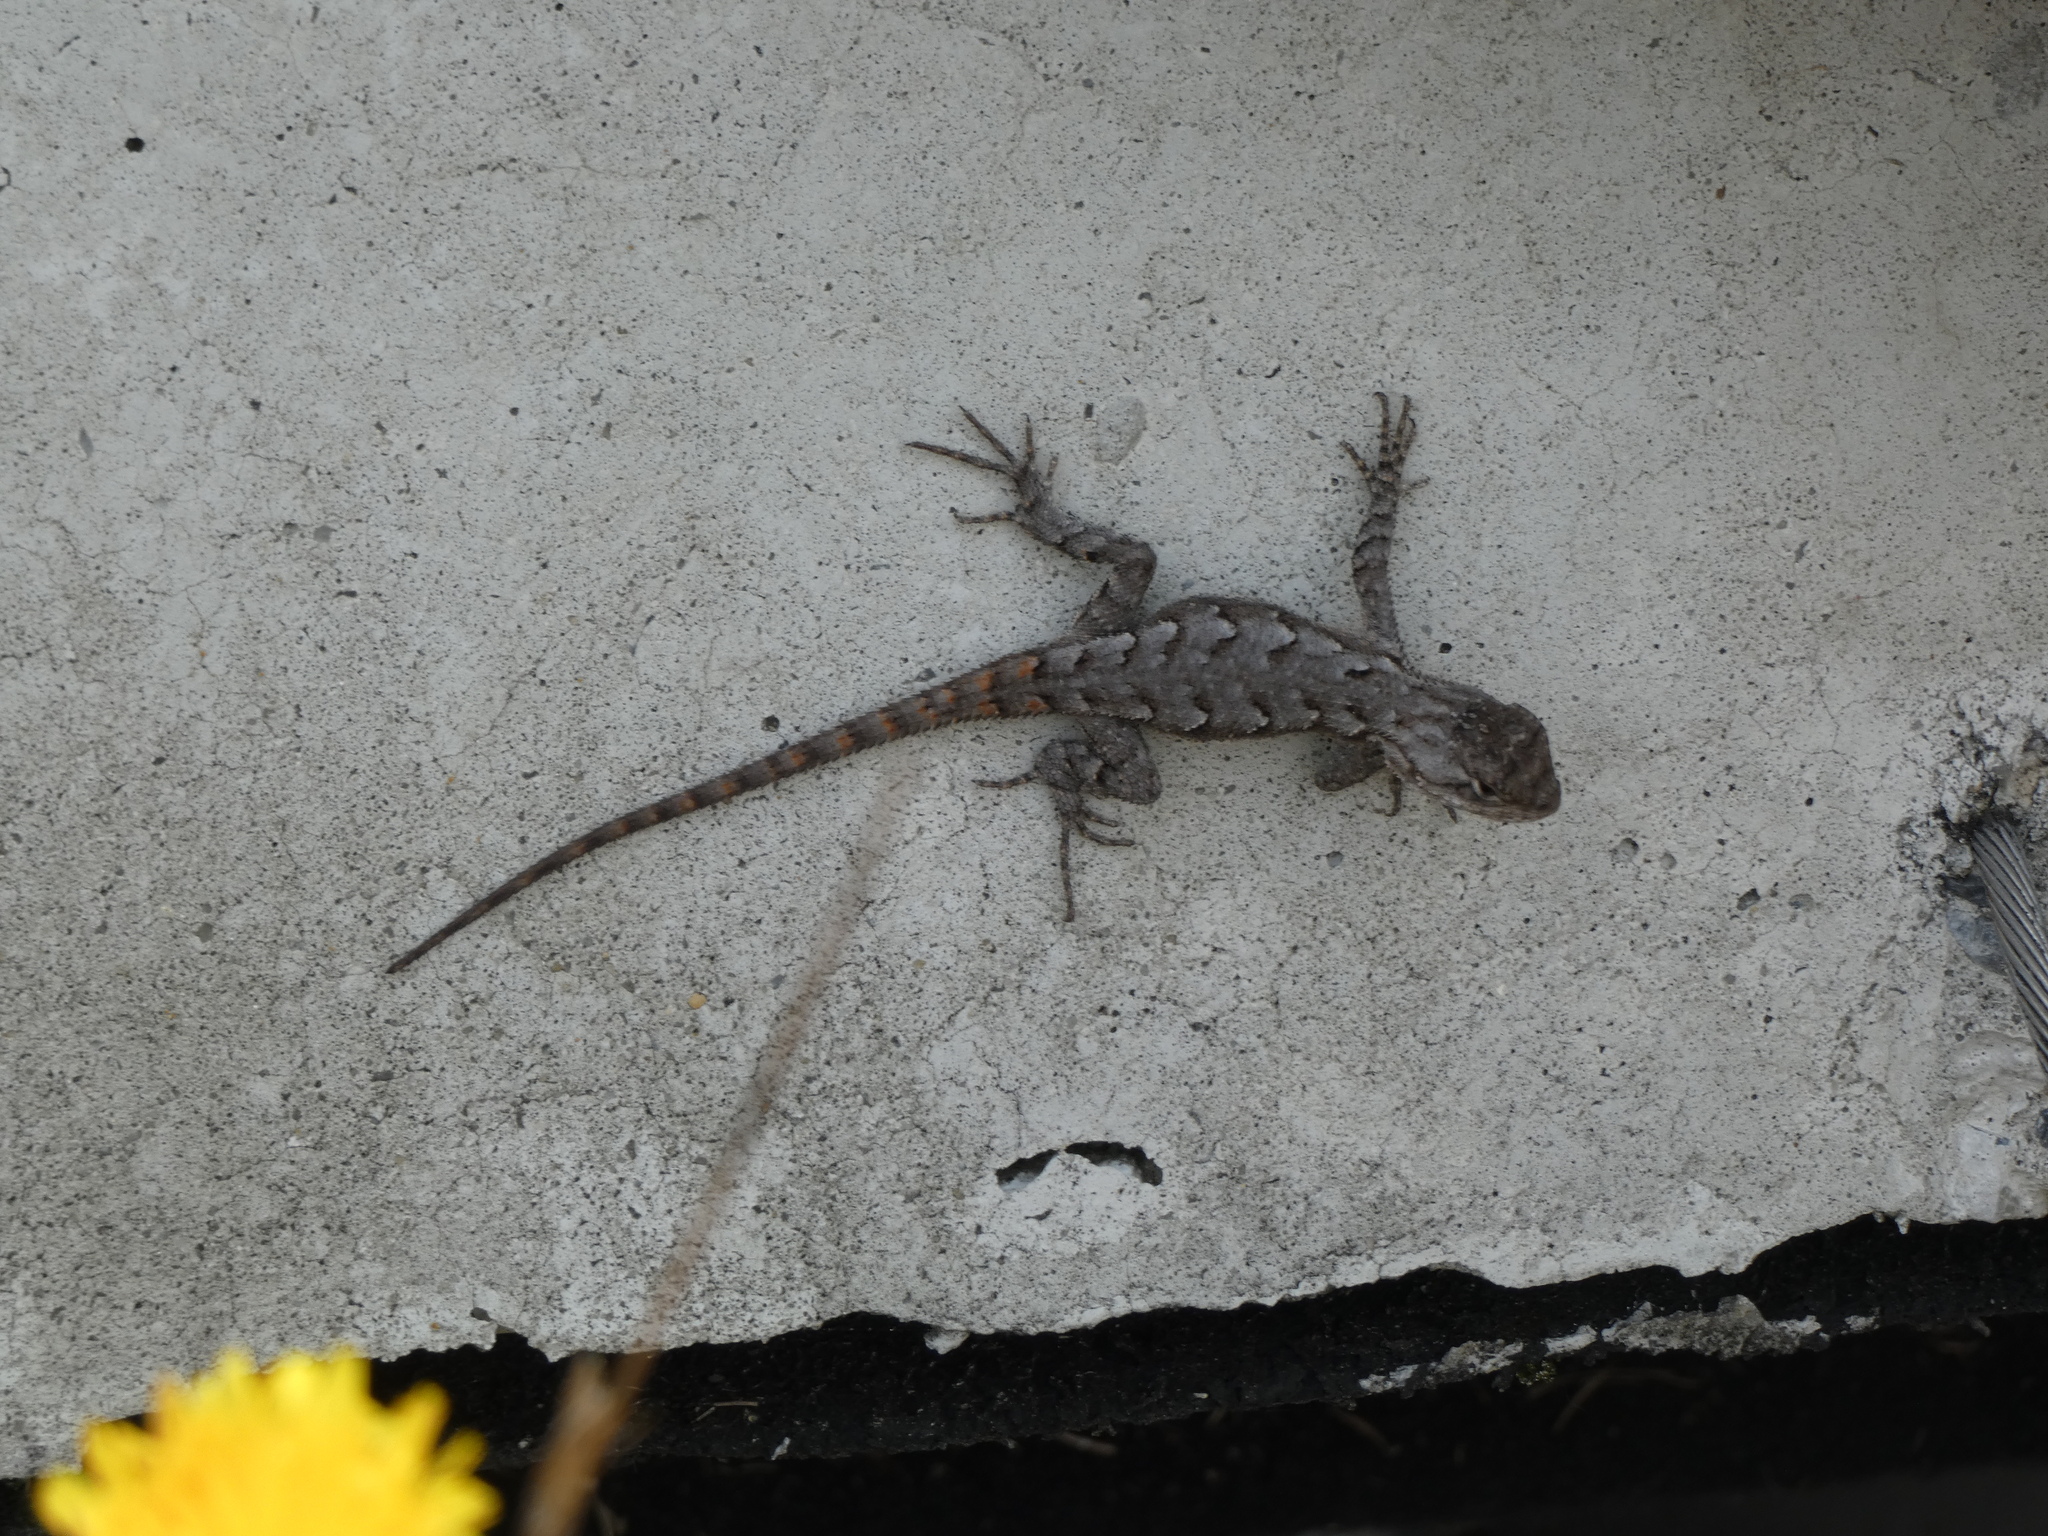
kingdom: Animalia
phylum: Chordata
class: Squamata
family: Phrynosomatidae
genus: Sceloporus
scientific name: Sceloporus undulatus
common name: Eastern fence lizard
